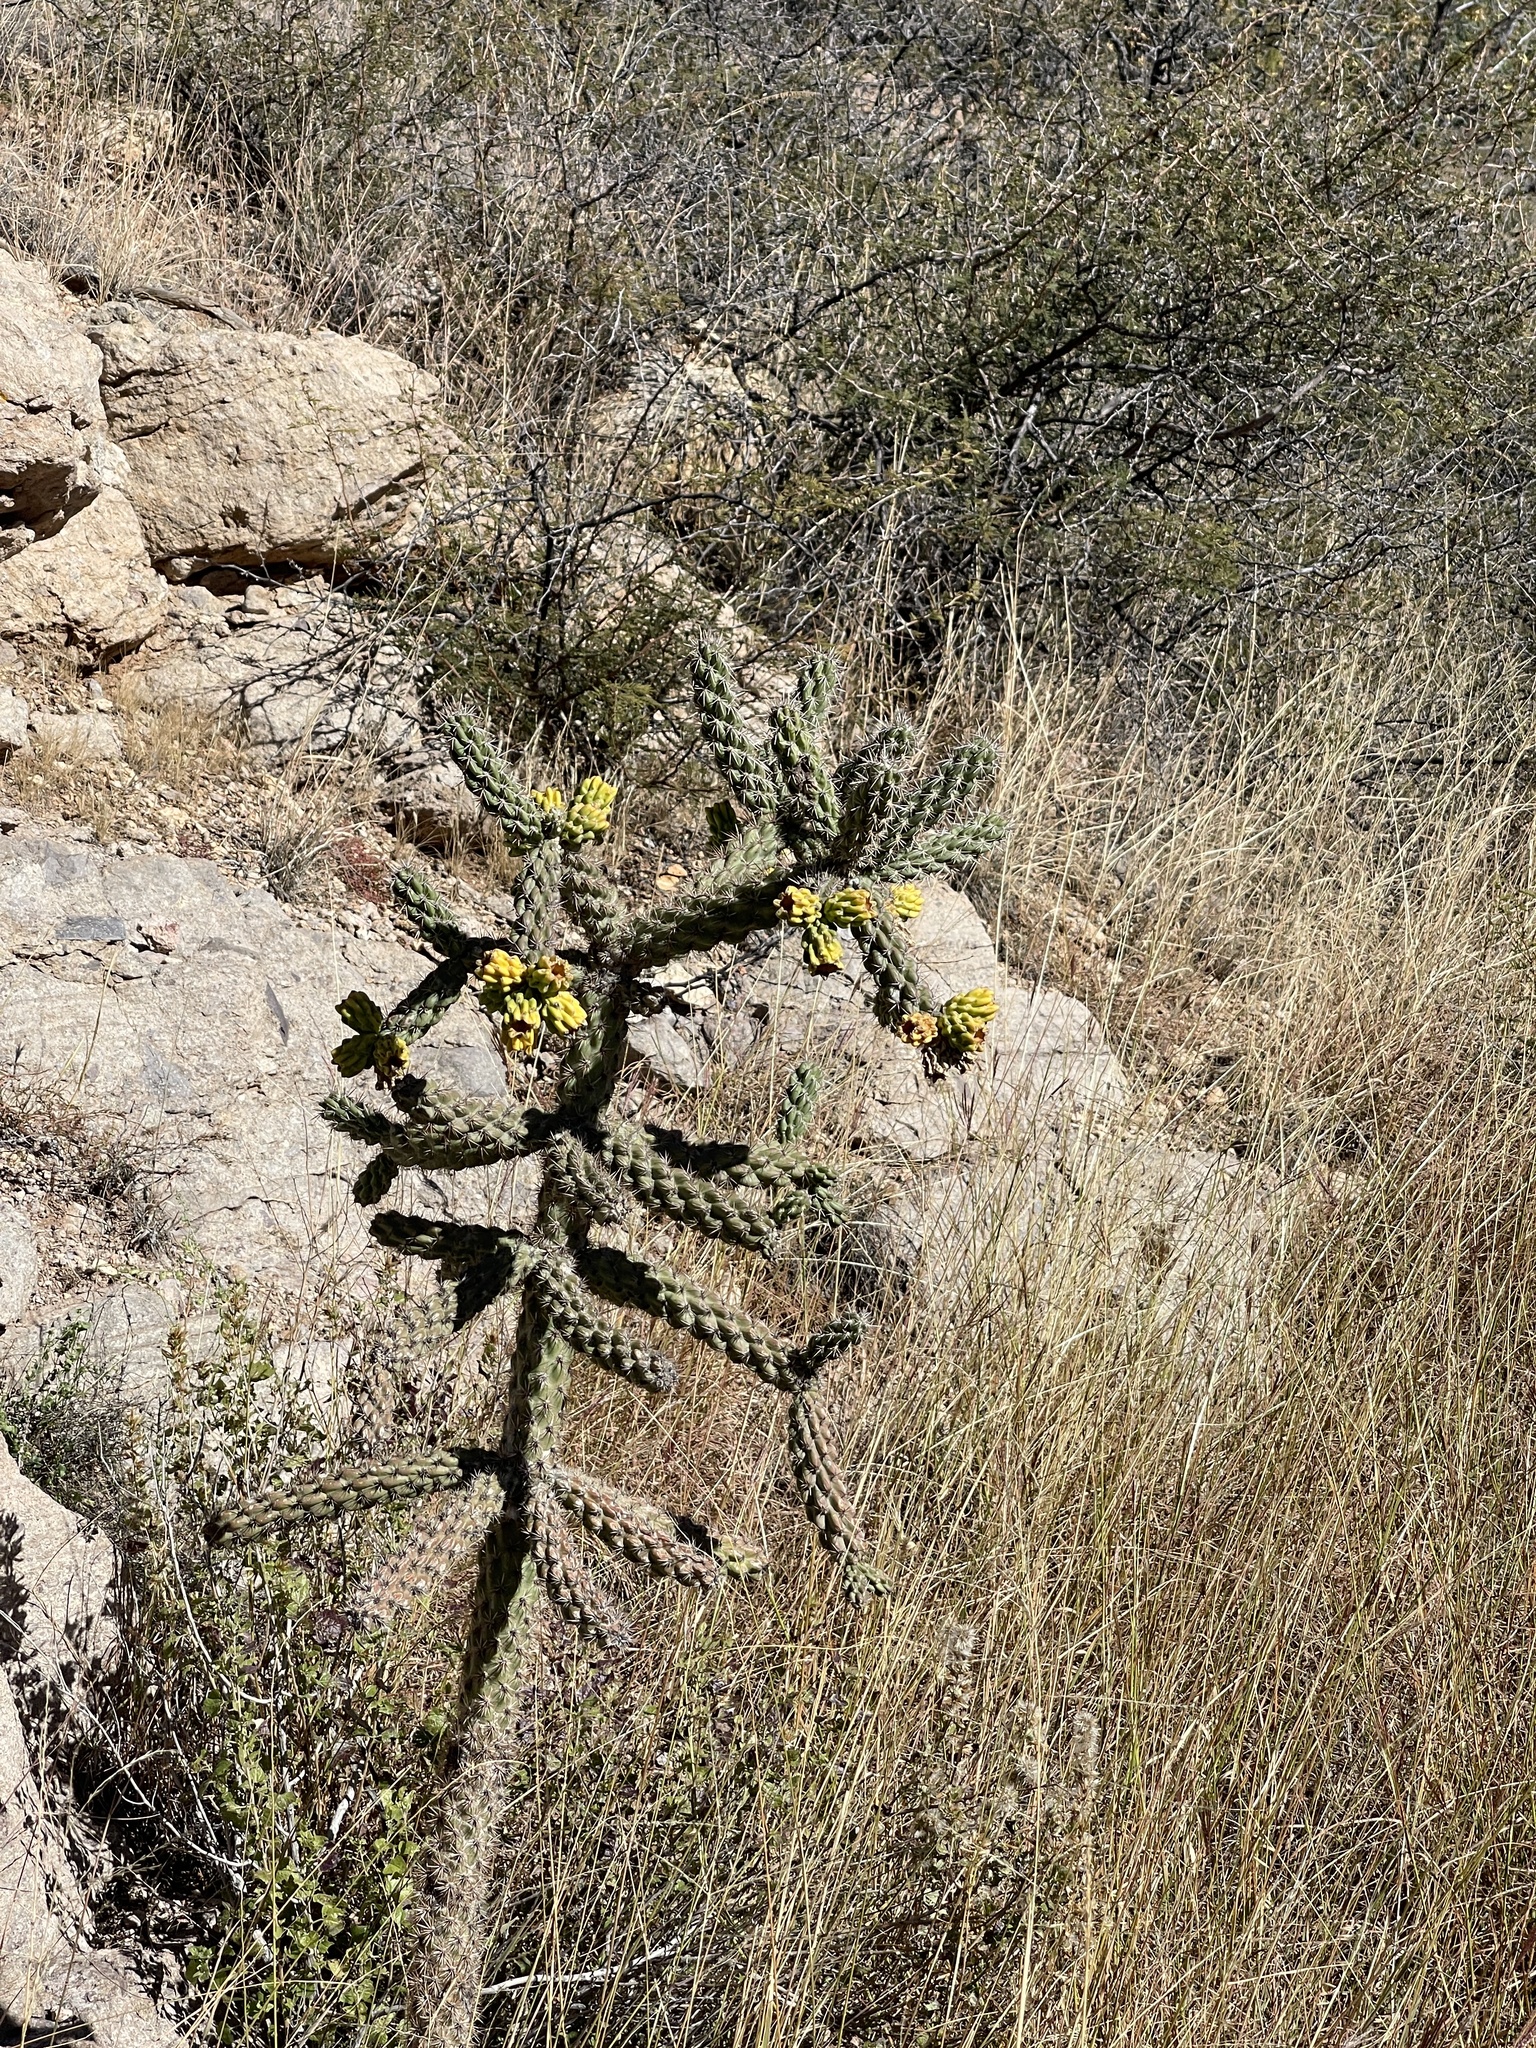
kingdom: Plantae
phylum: Tracheophyta
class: Magnoliopsida
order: Caryophyllales
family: Cactaceae
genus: Cylindropuntia
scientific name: Cylindropuntia imbricata
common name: Candelabrum cactus
